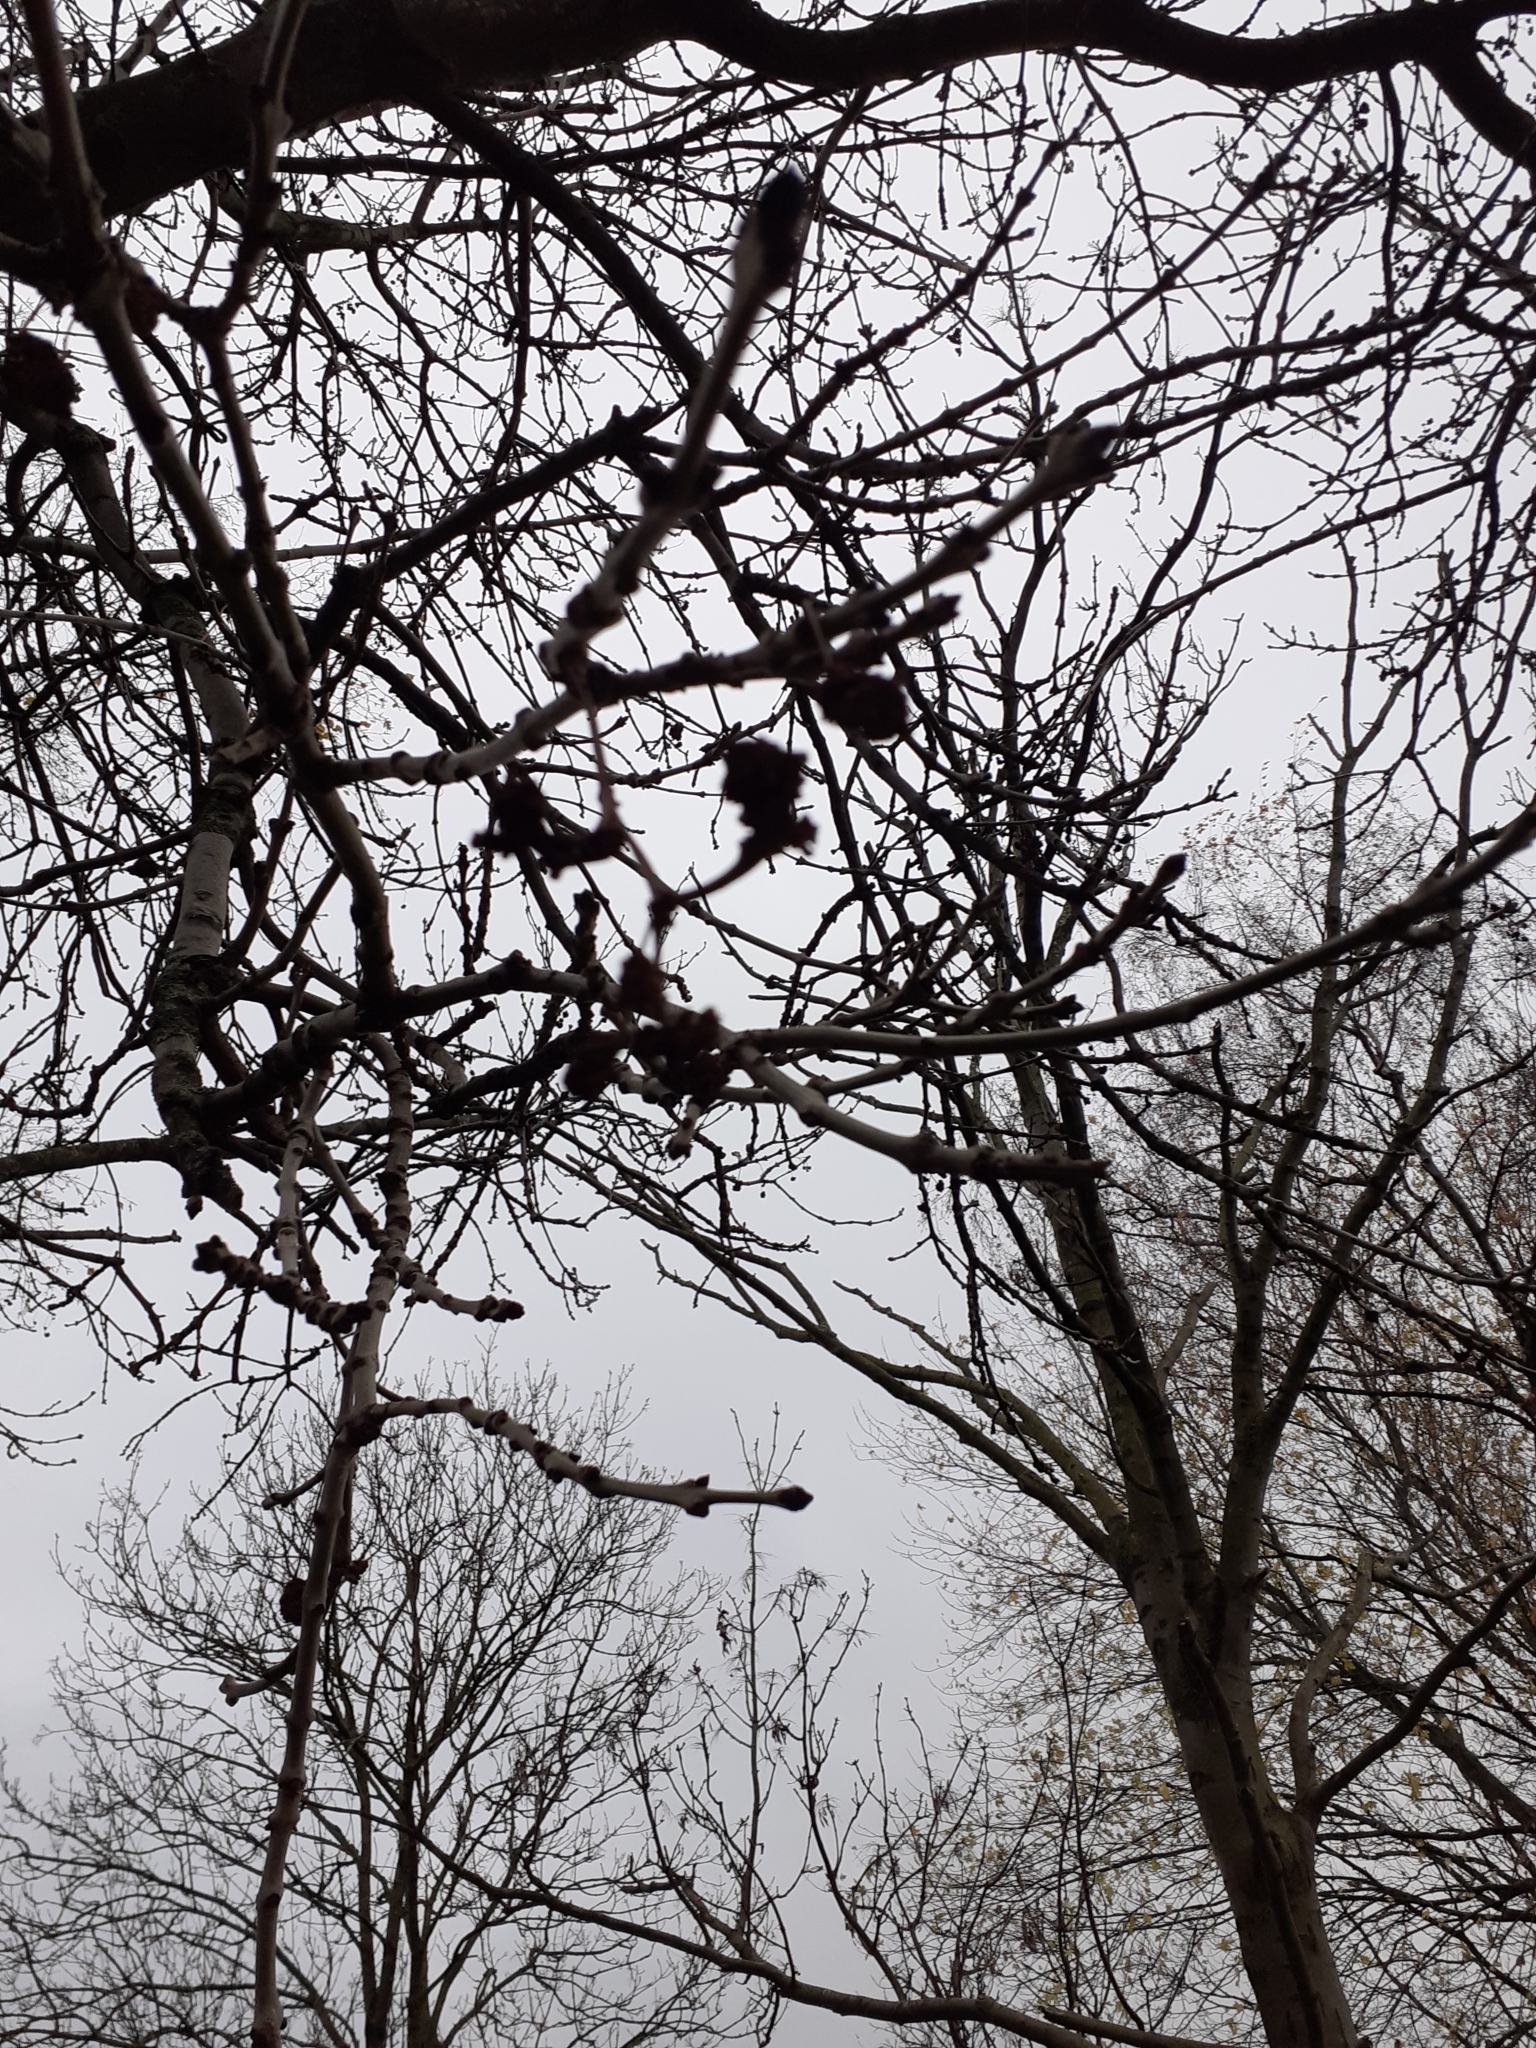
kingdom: Animalia
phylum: Arthropoda
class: Arachnida
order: Trombidiformes
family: Eriophyidae
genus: Aceria
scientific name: Aceria fraxinivora
